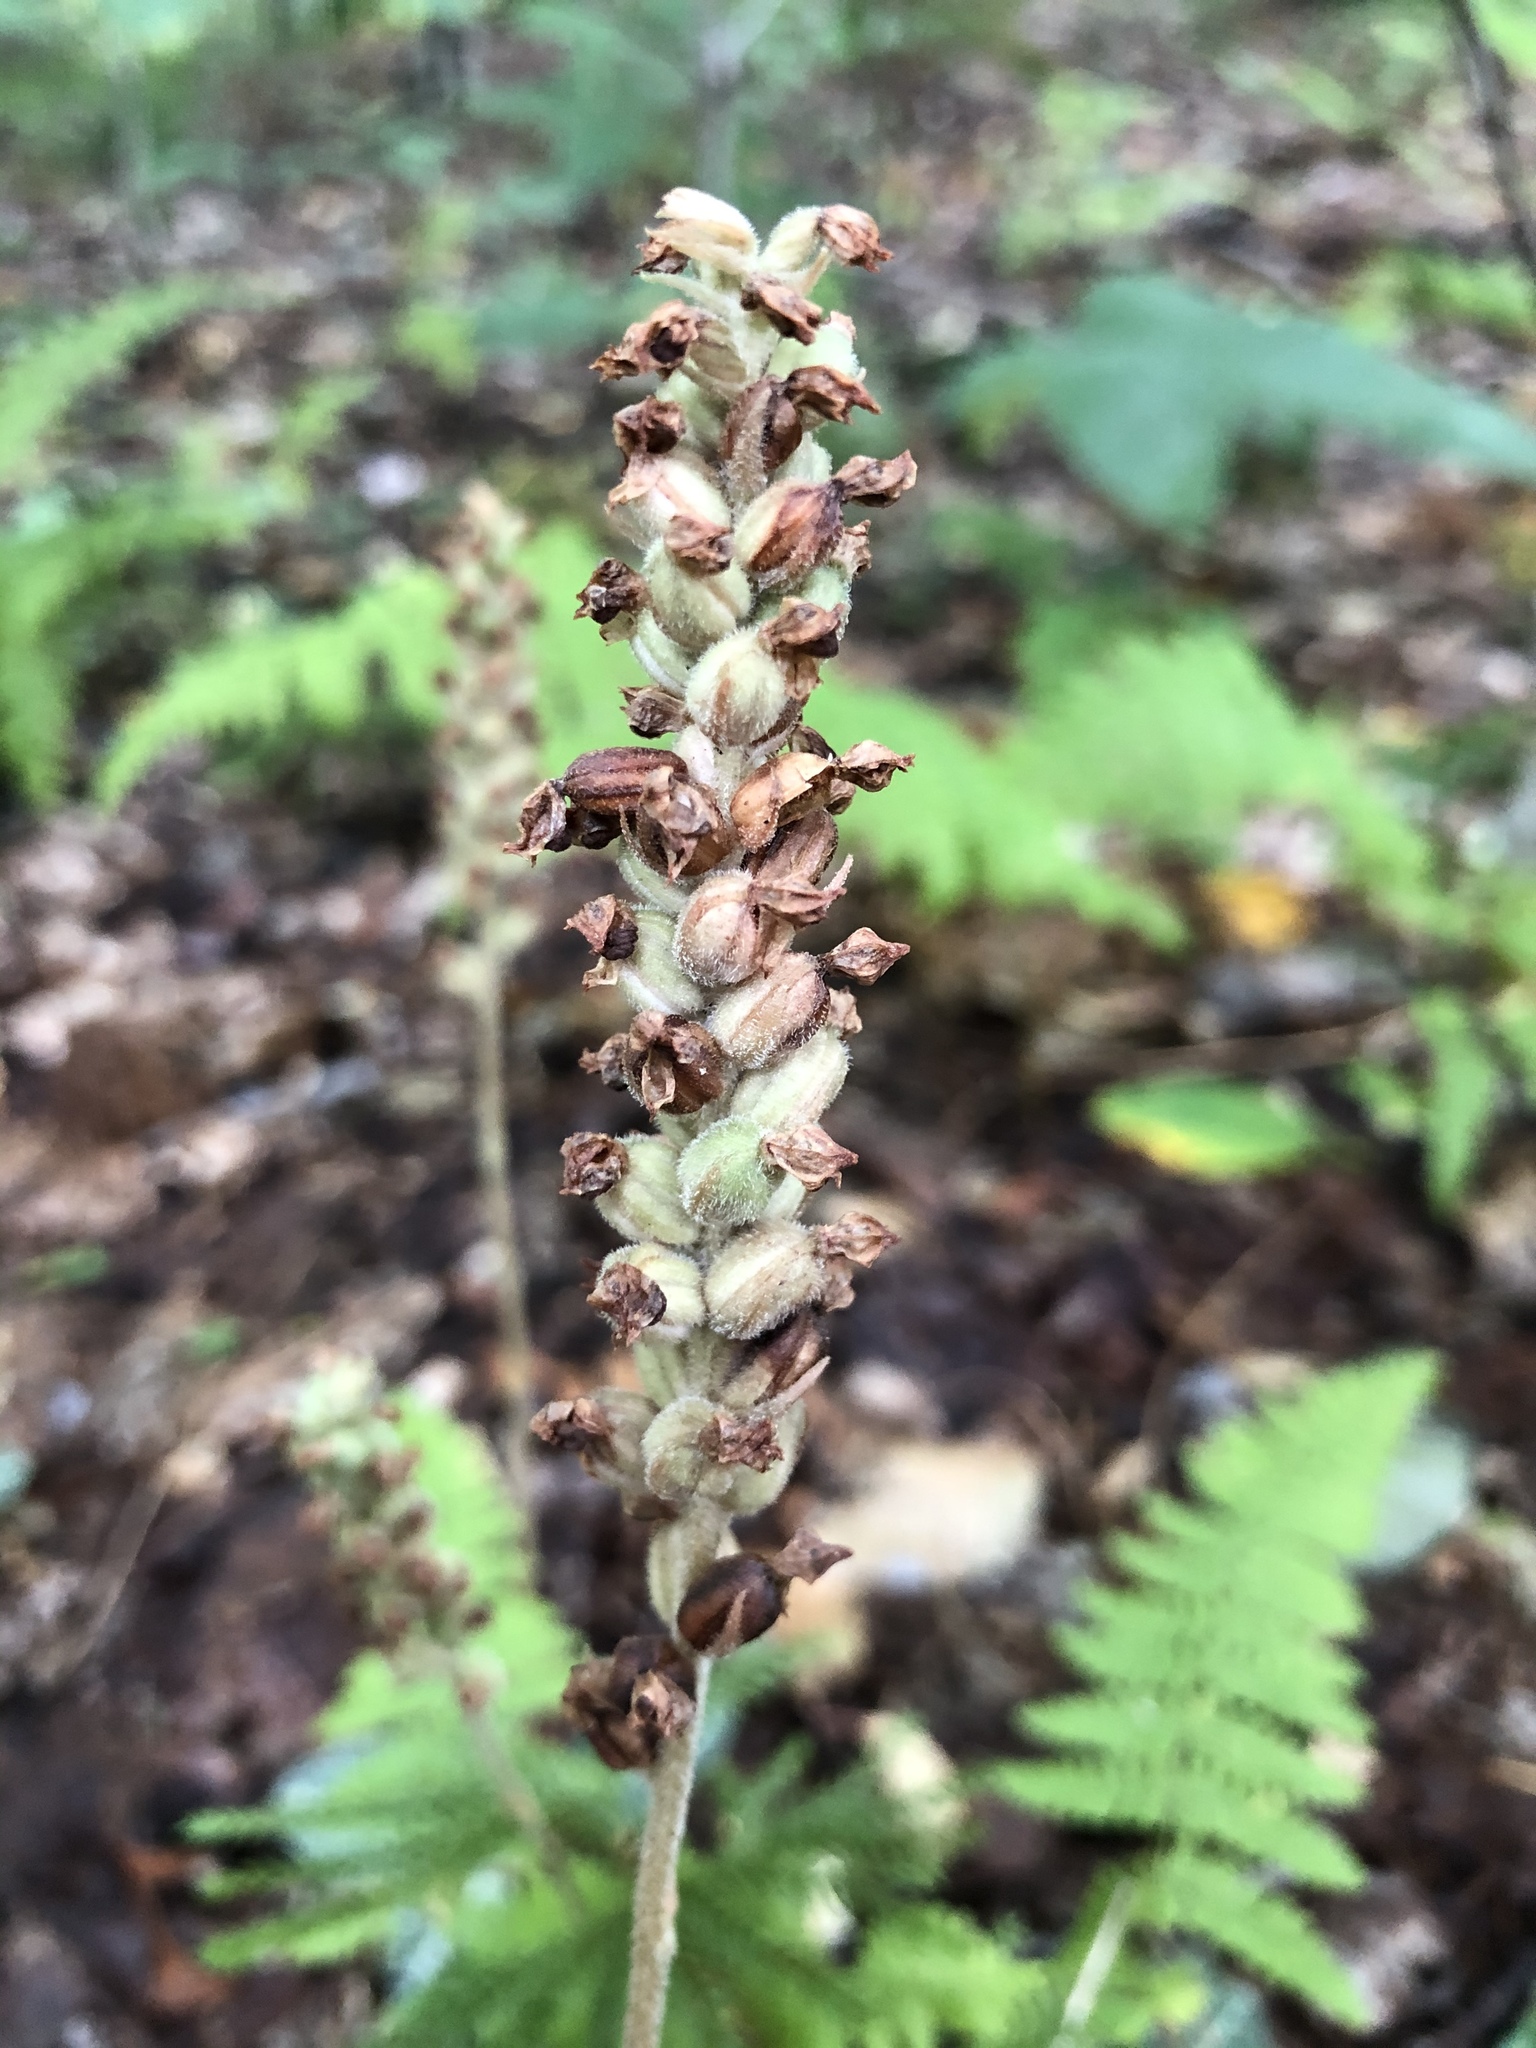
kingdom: Plantae
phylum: Tracheophyta
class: Liliopsida
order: Asparagales
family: Orchidaceae
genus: Goodyera
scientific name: Goodyera pubescens
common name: Downy rattlesnake-plantain
